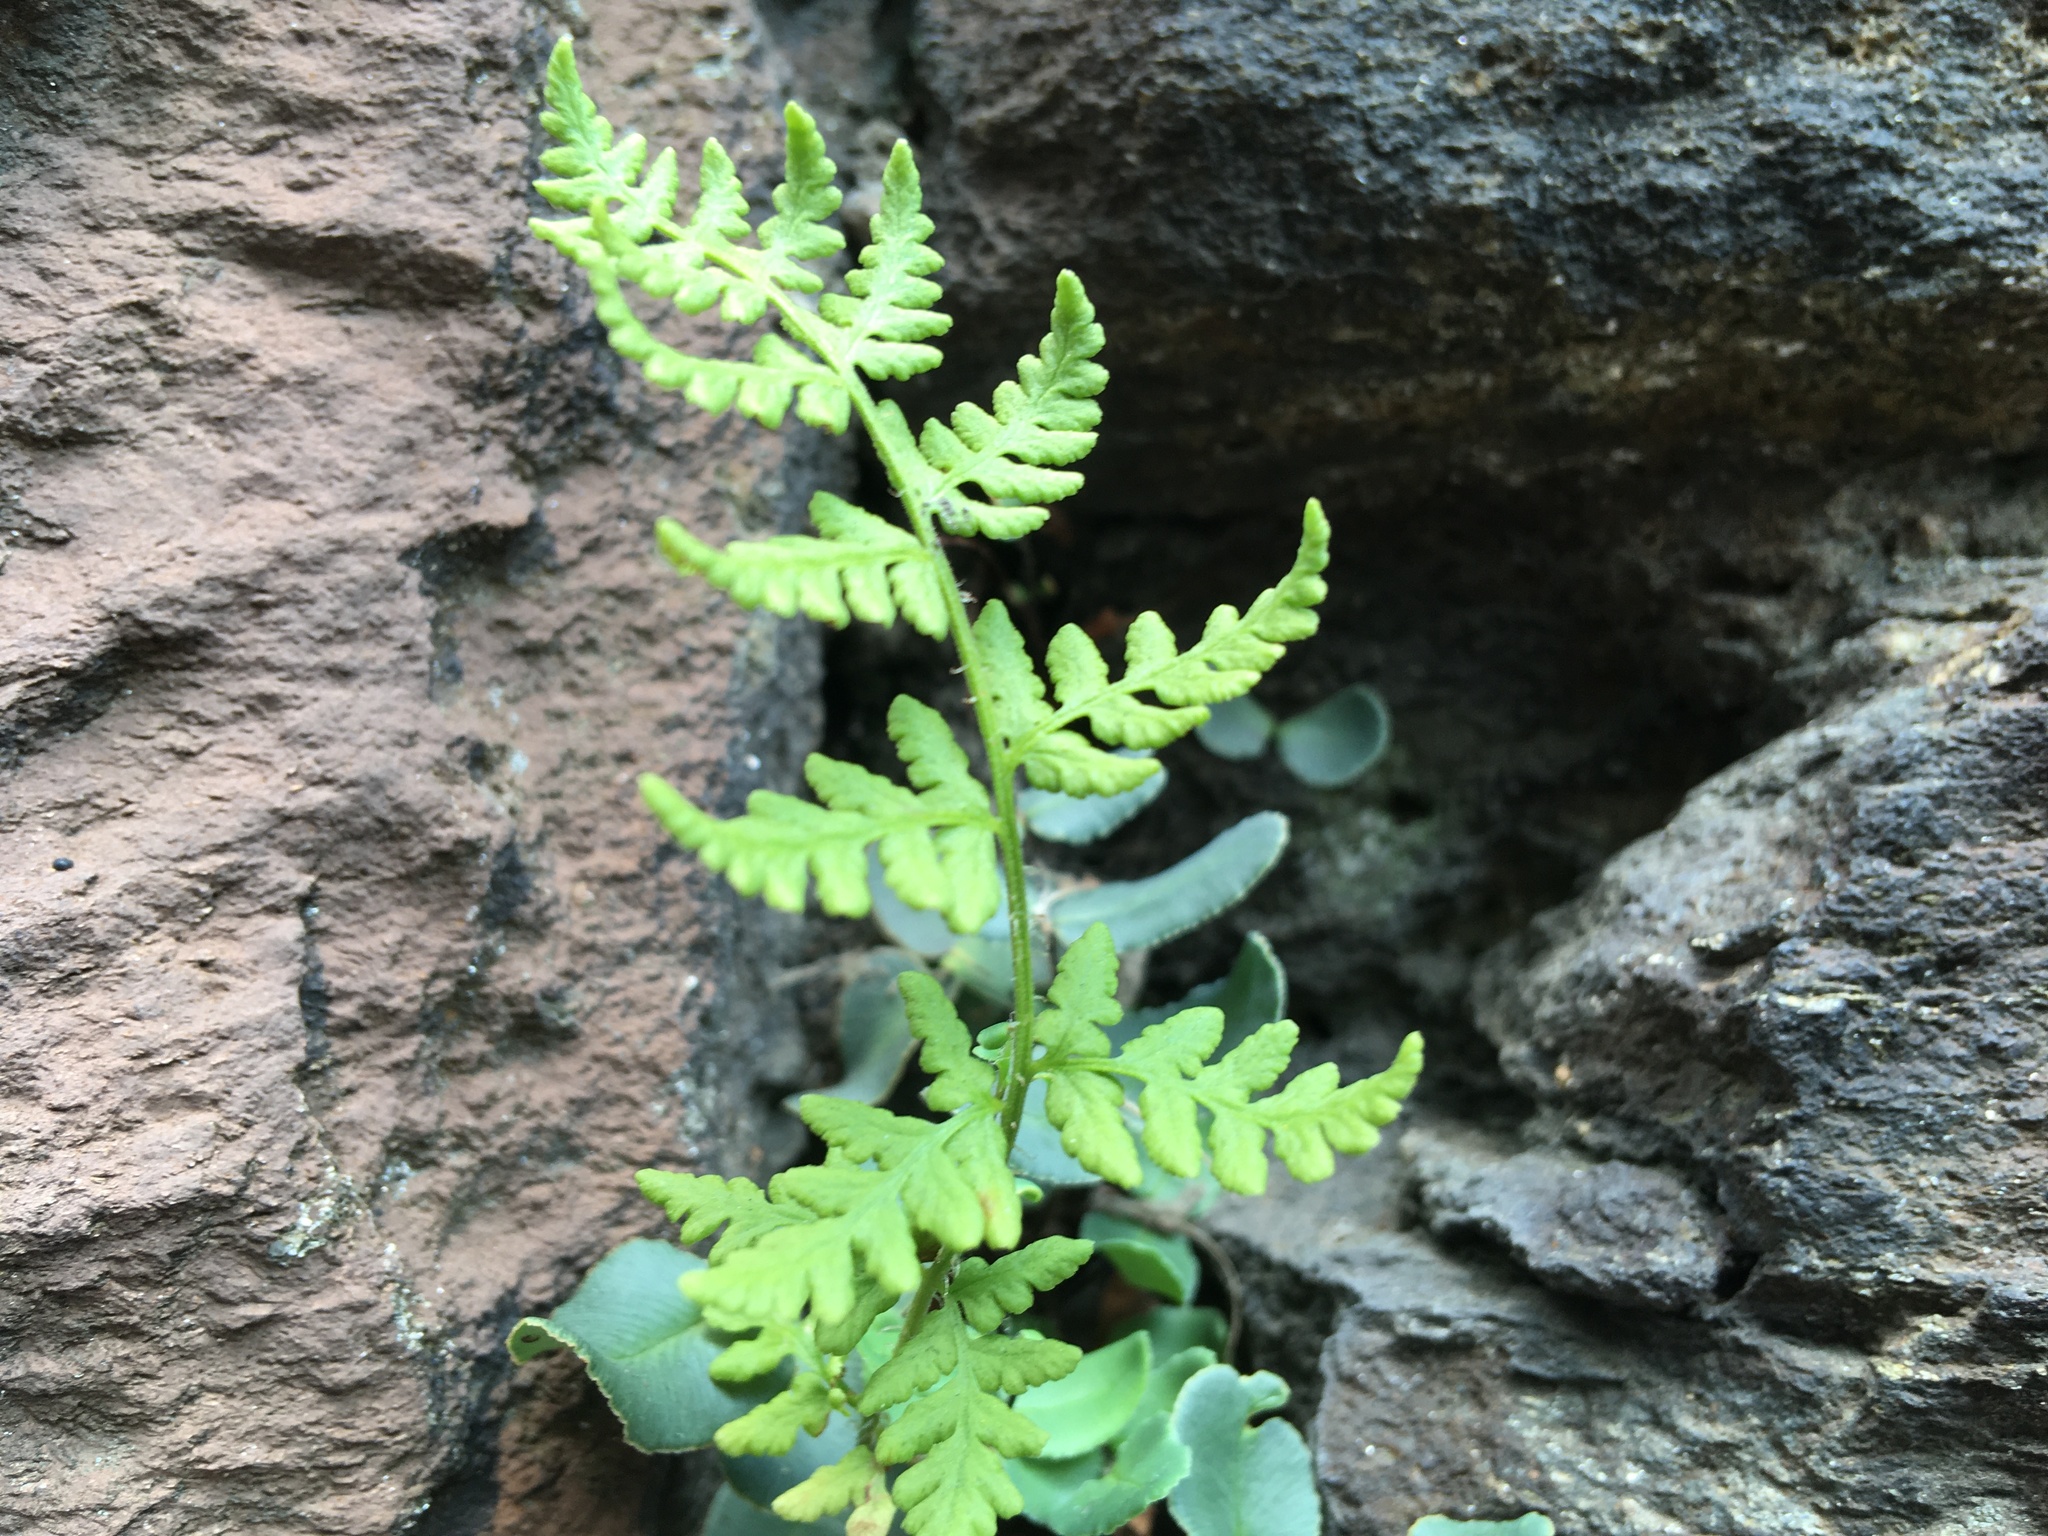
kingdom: Plantae
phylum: Tracheophyta
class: Polypodiopsida
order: Polypodiales
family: Woodsiaceae
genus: Physematium
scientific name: Physematium obtusum
